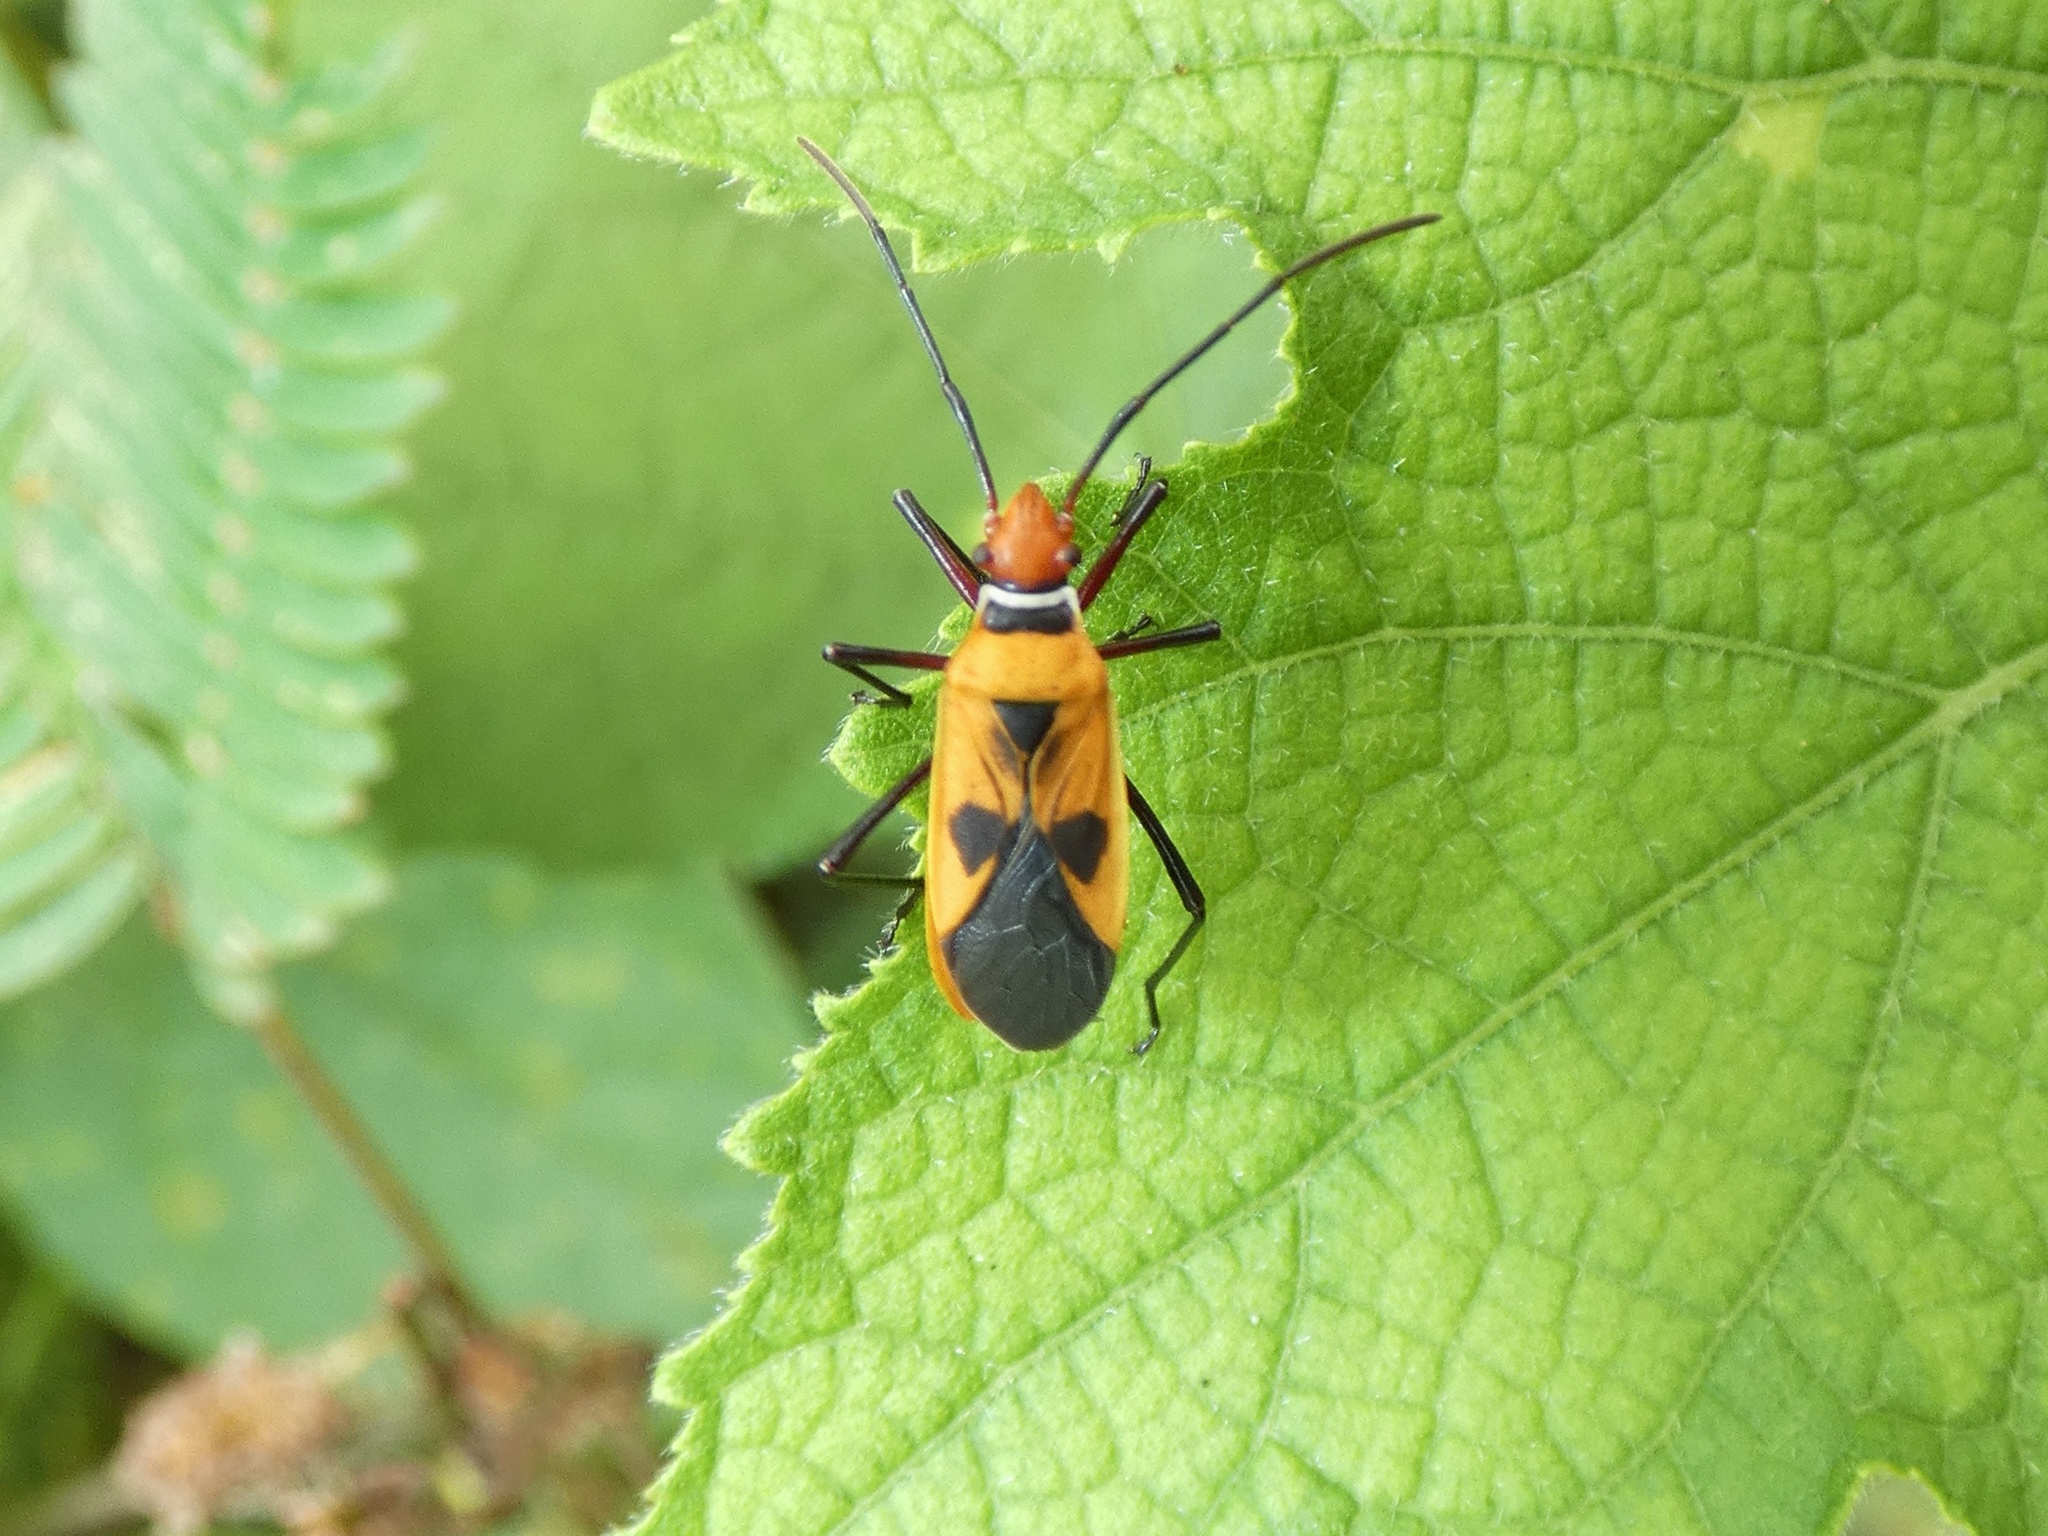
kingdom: Animalia
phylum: Arthropoda
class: Insecta
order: Hemiptera
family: Pyrrhocoridae
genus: Dysdercus
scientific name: Dysdercus poecilus
